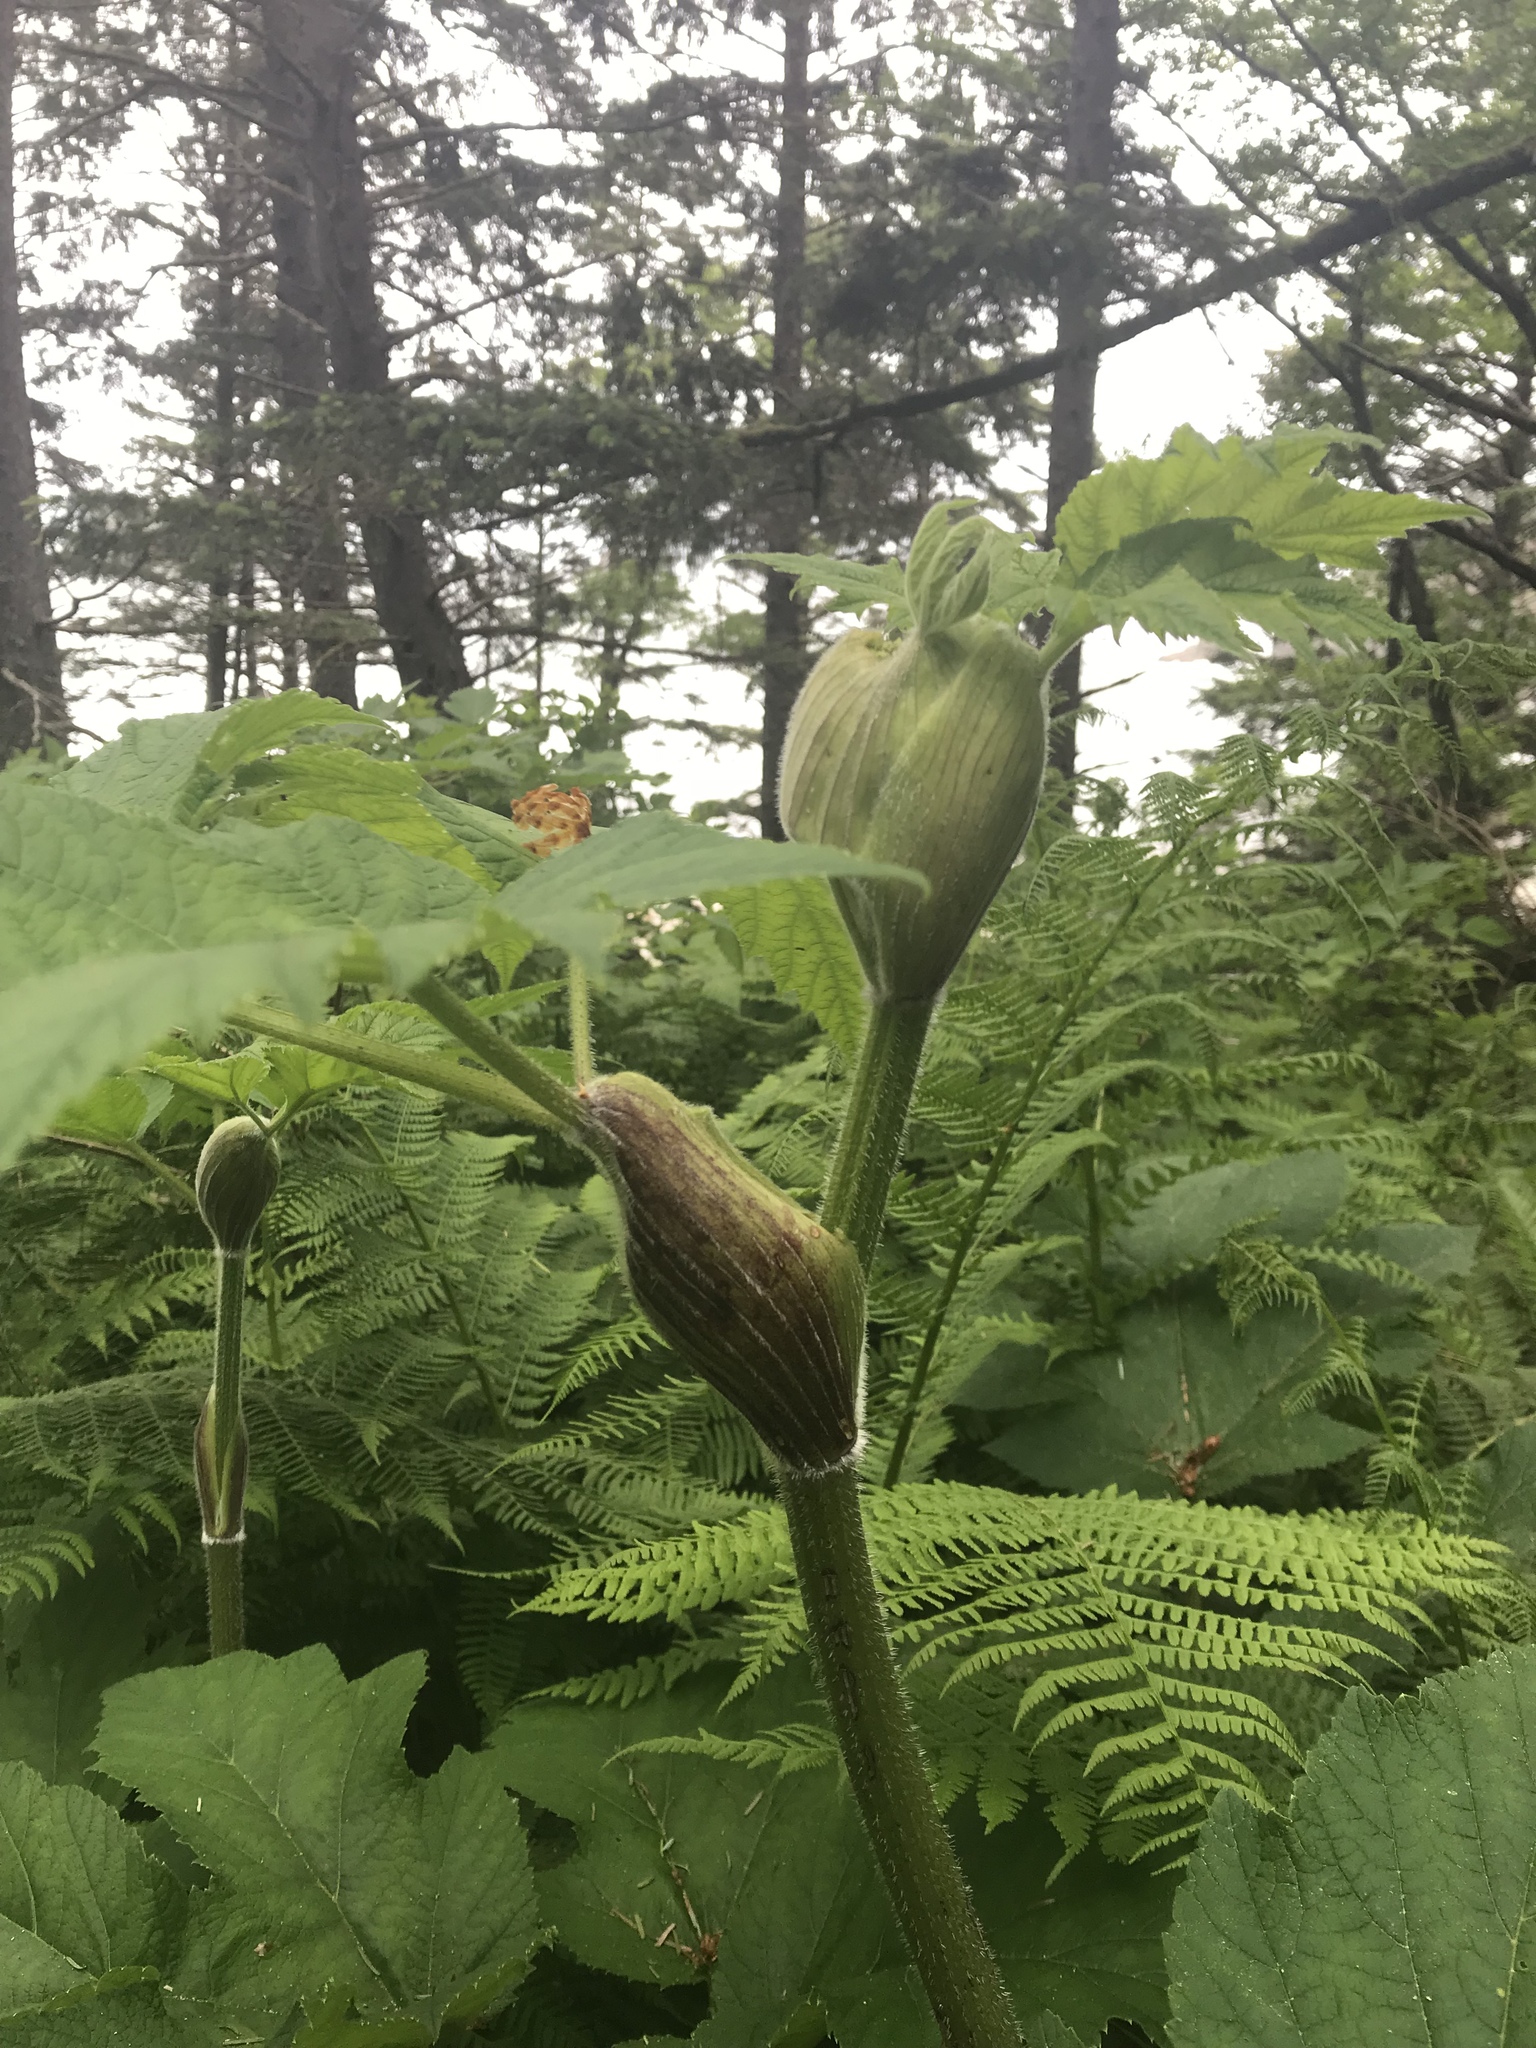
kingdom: Plantae
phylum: Tracheophyta
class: Magnoliopsida
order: Apiales
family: Apiaceae
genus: Heracleum
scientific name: Heracleum maximum
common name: American cow parsnip
